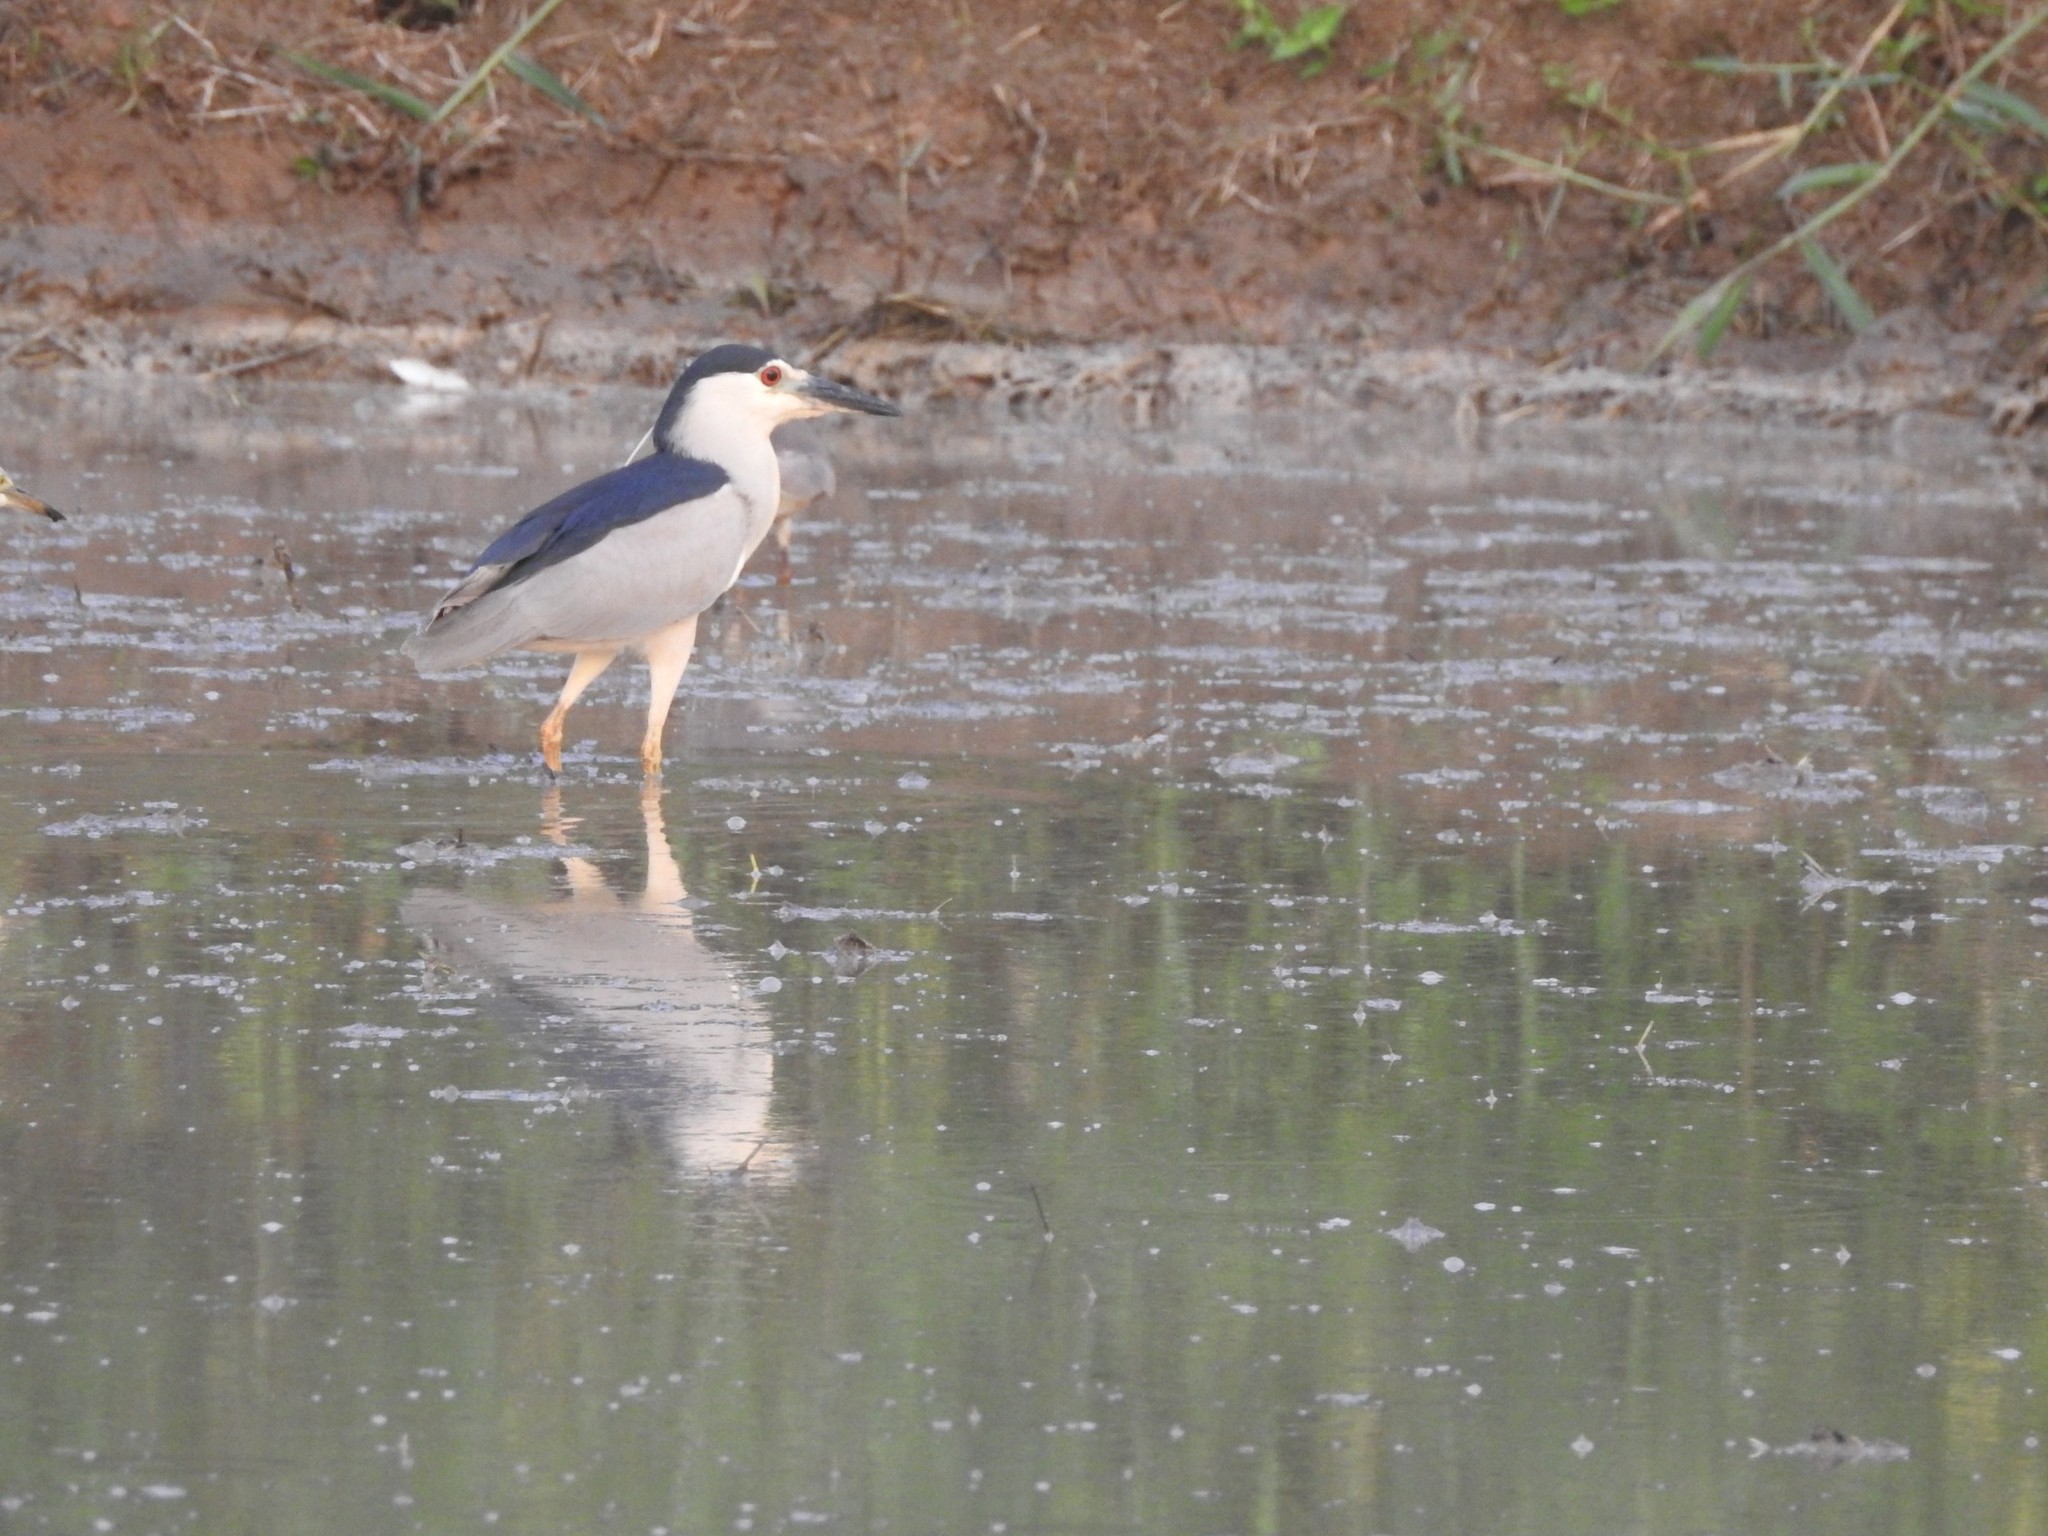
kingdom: Animalia
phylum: Chordata
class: Aves
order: Pelecaniformes
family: Ardeidae
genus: Nycticorax
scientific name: Nycticorax nycticorax
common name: Black-crowned night heron
